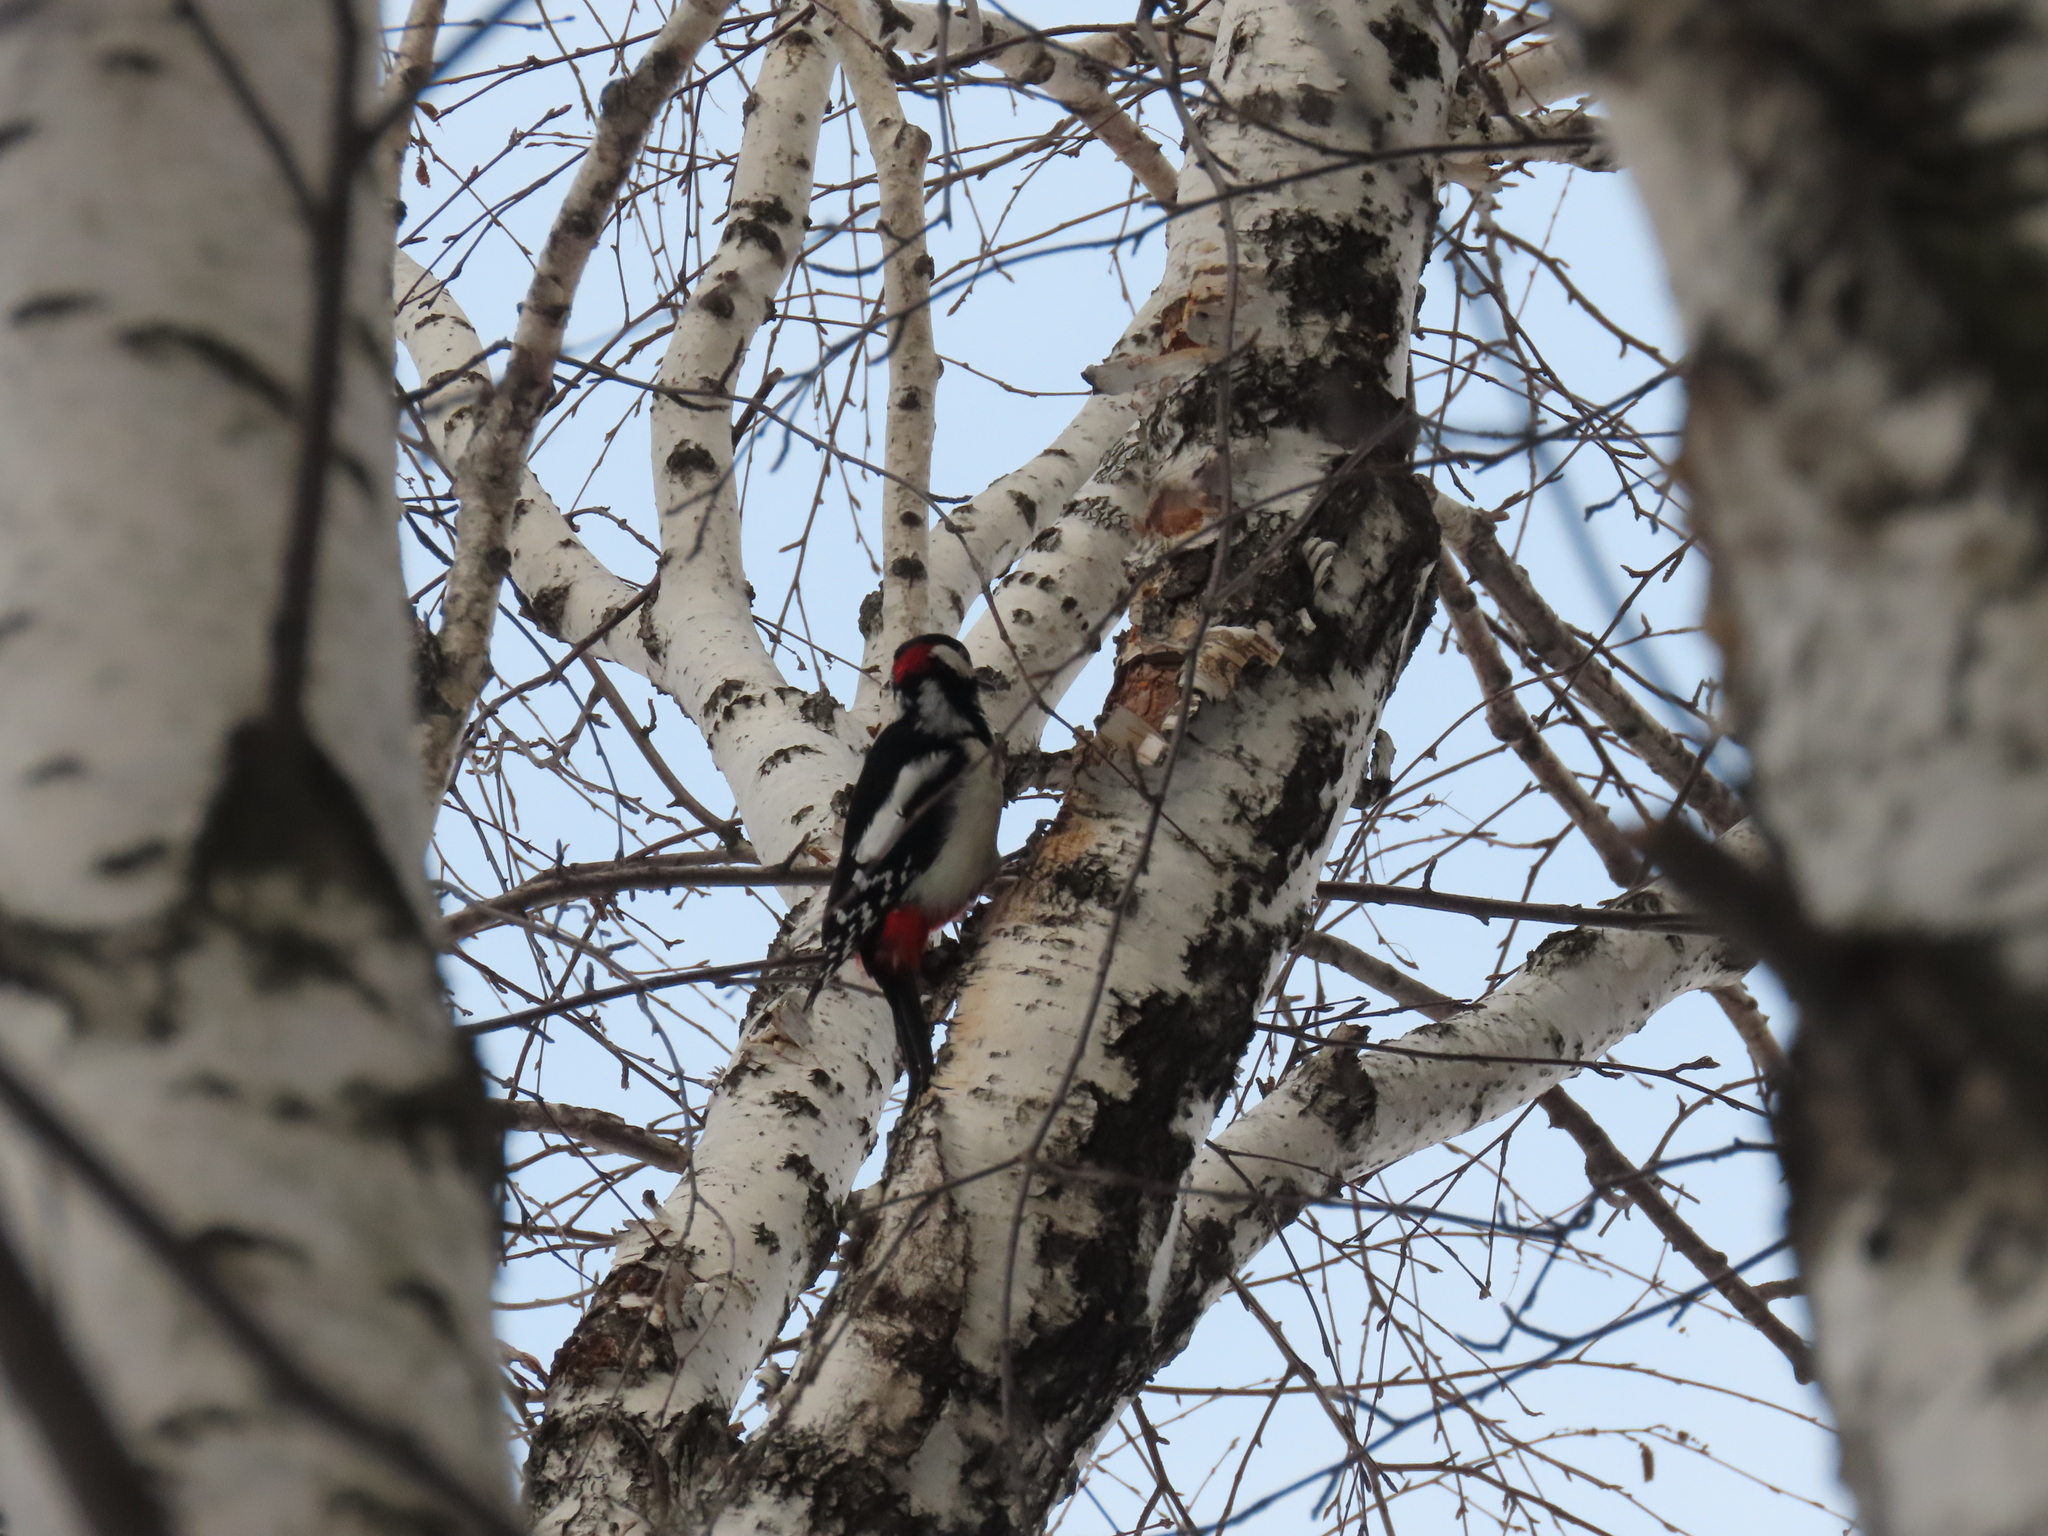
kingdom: Animalia
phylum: Chordata
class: Aves
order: Piciformes
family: Picidae
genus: Dendrocopos
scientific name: Dendrocopos major
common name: Great spotted woodpecker
